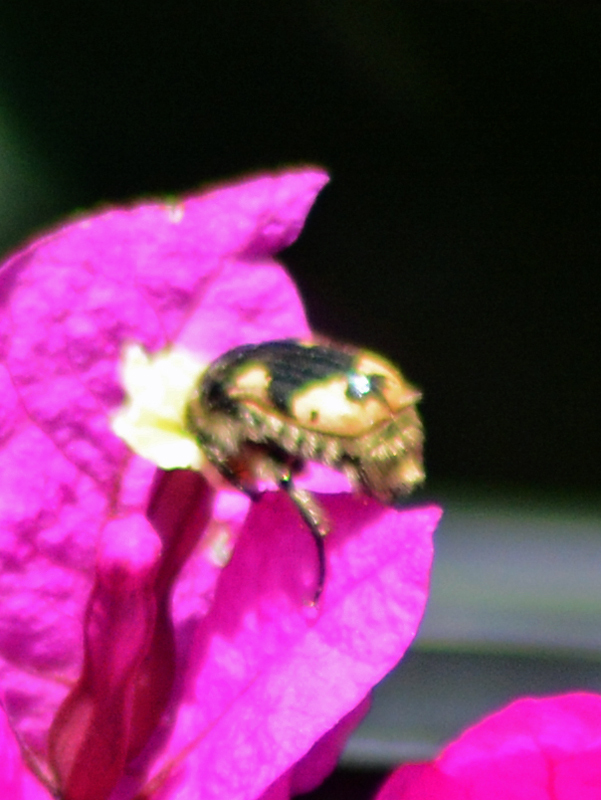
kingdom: Animalia
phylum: Arthropoda
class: Insecta
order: Coleoptera
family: Scarabaeidae
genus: Euphoria
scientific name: Euphoria basalis
